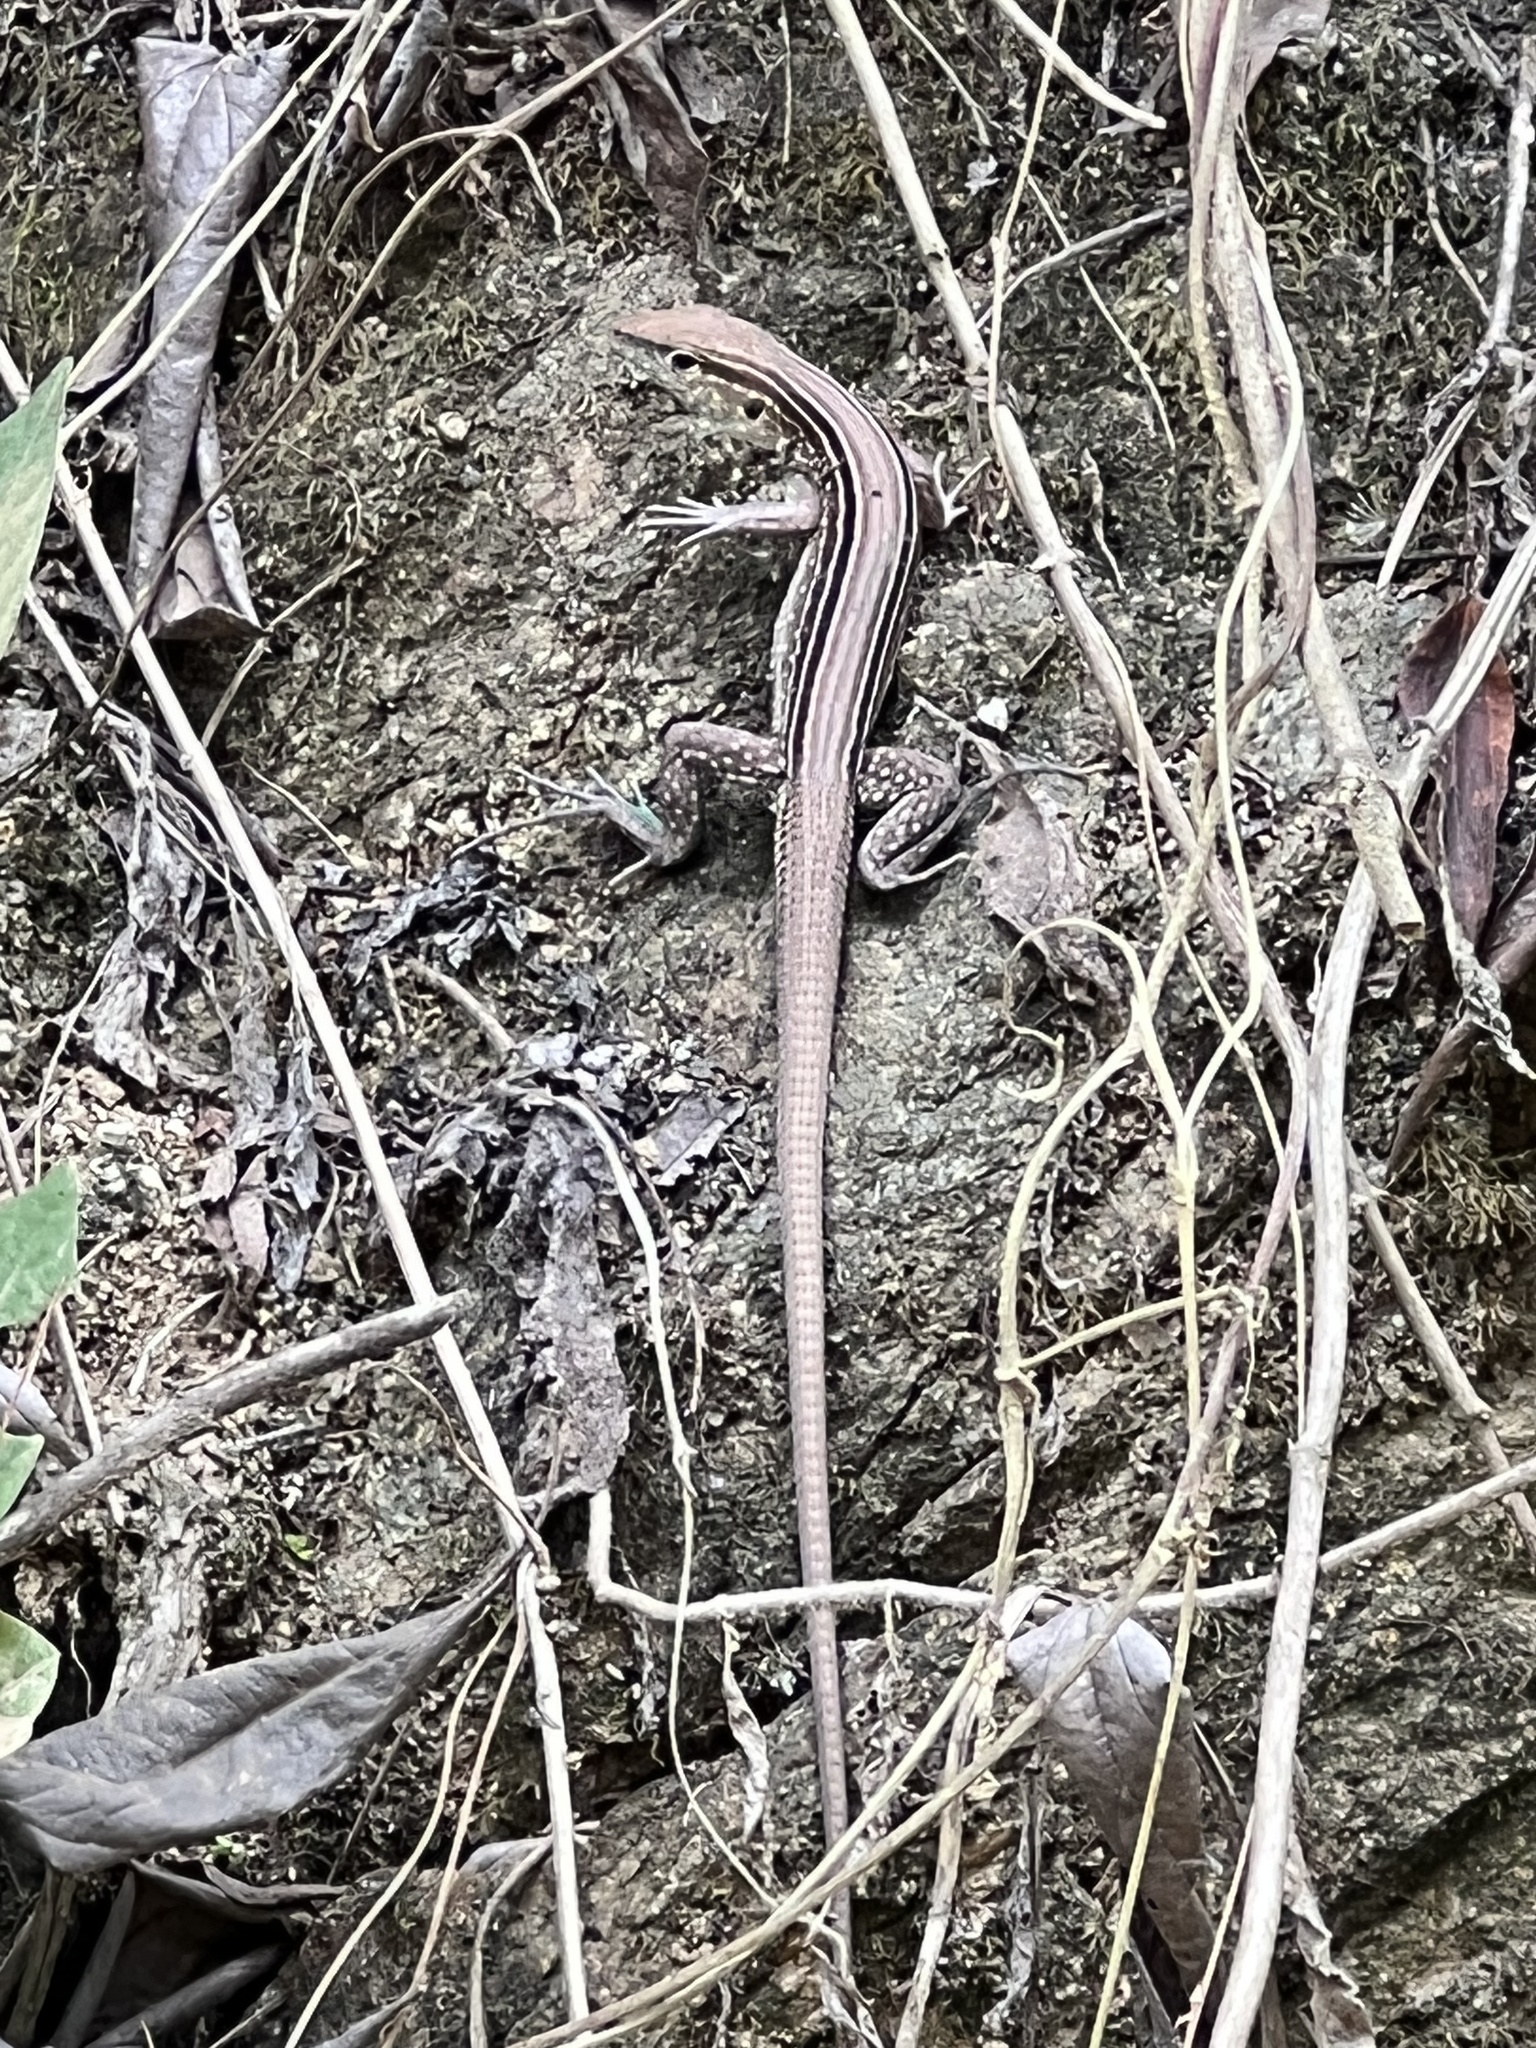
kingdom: Animalia
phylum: Chordata
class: Squamata
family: Teiidae
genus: Cnemidophorus
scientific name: Cnemidophorus gaigei
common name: Gaige’s rainbow lizard
